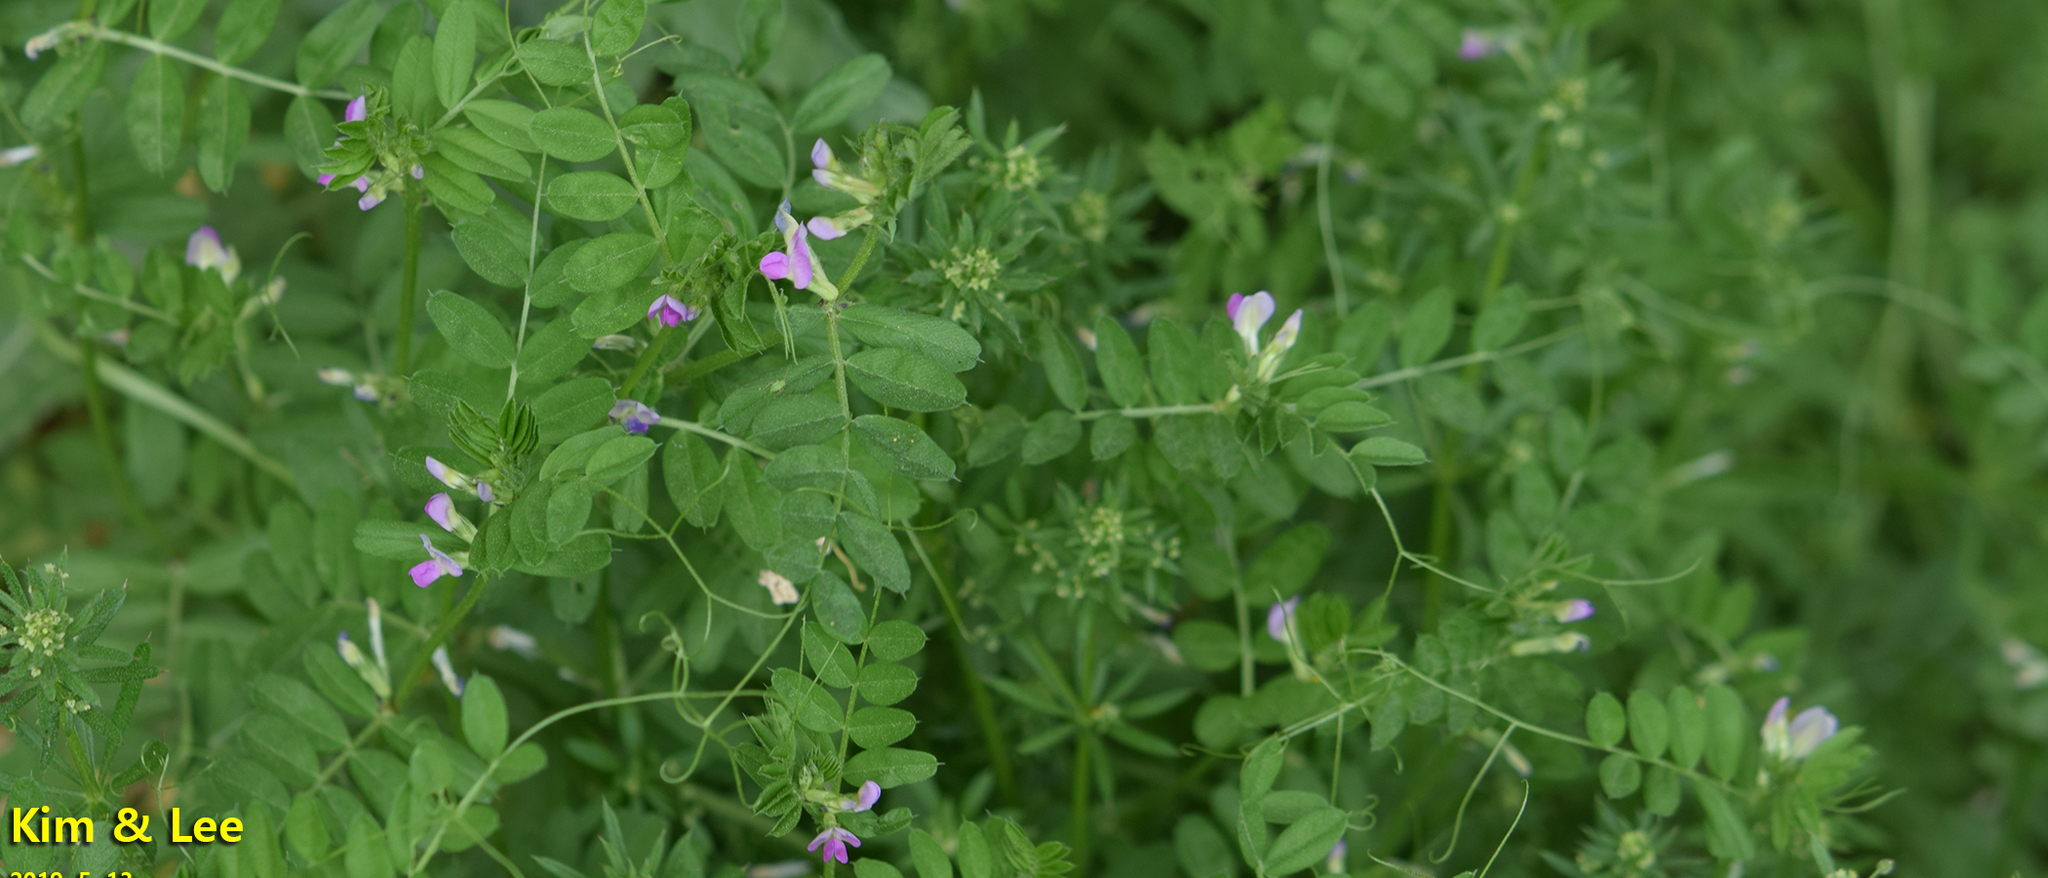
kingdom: Plantae
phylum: Tracheophyta
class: Magnoliopsida
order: Fabales
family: Fabaceae
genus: Vicia
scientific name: Vicia sativa
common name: Garden vetch
